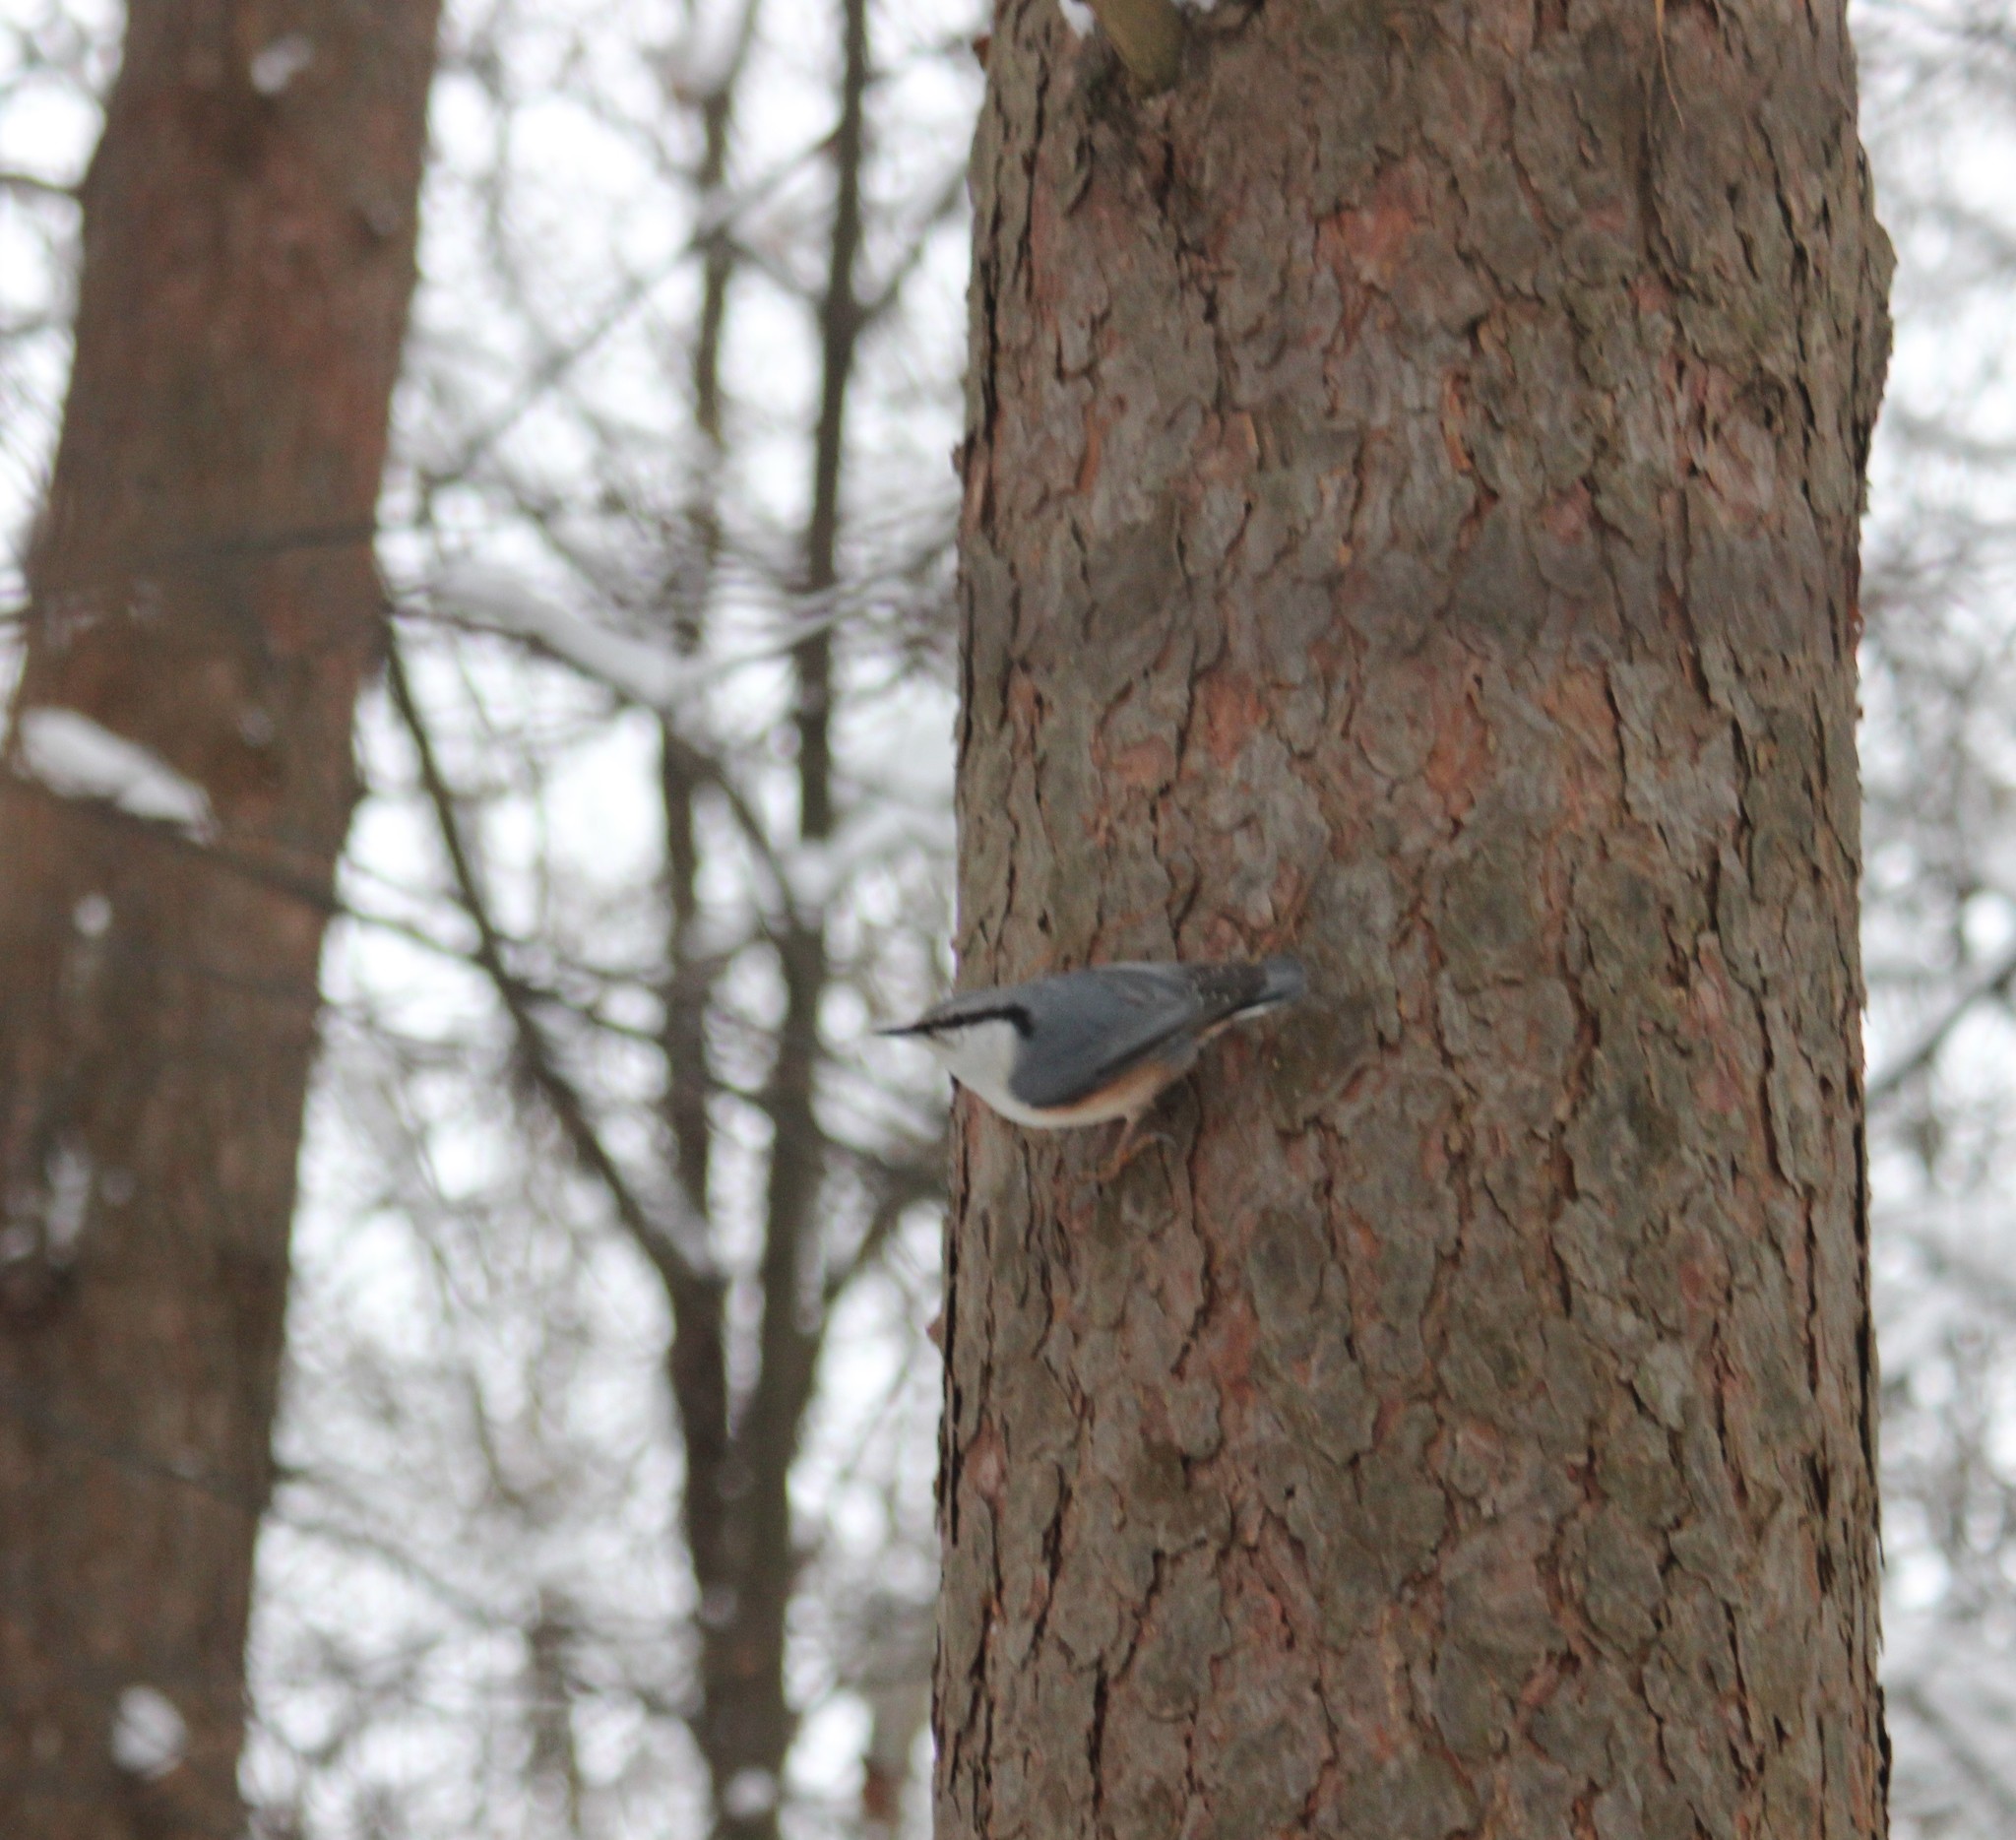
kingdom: Animalia
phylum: Chordata
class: Aves
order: Passeriformes
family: Sittidae
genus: Sitta
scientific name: Sitta europaea
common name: Eurasian nuthatch
